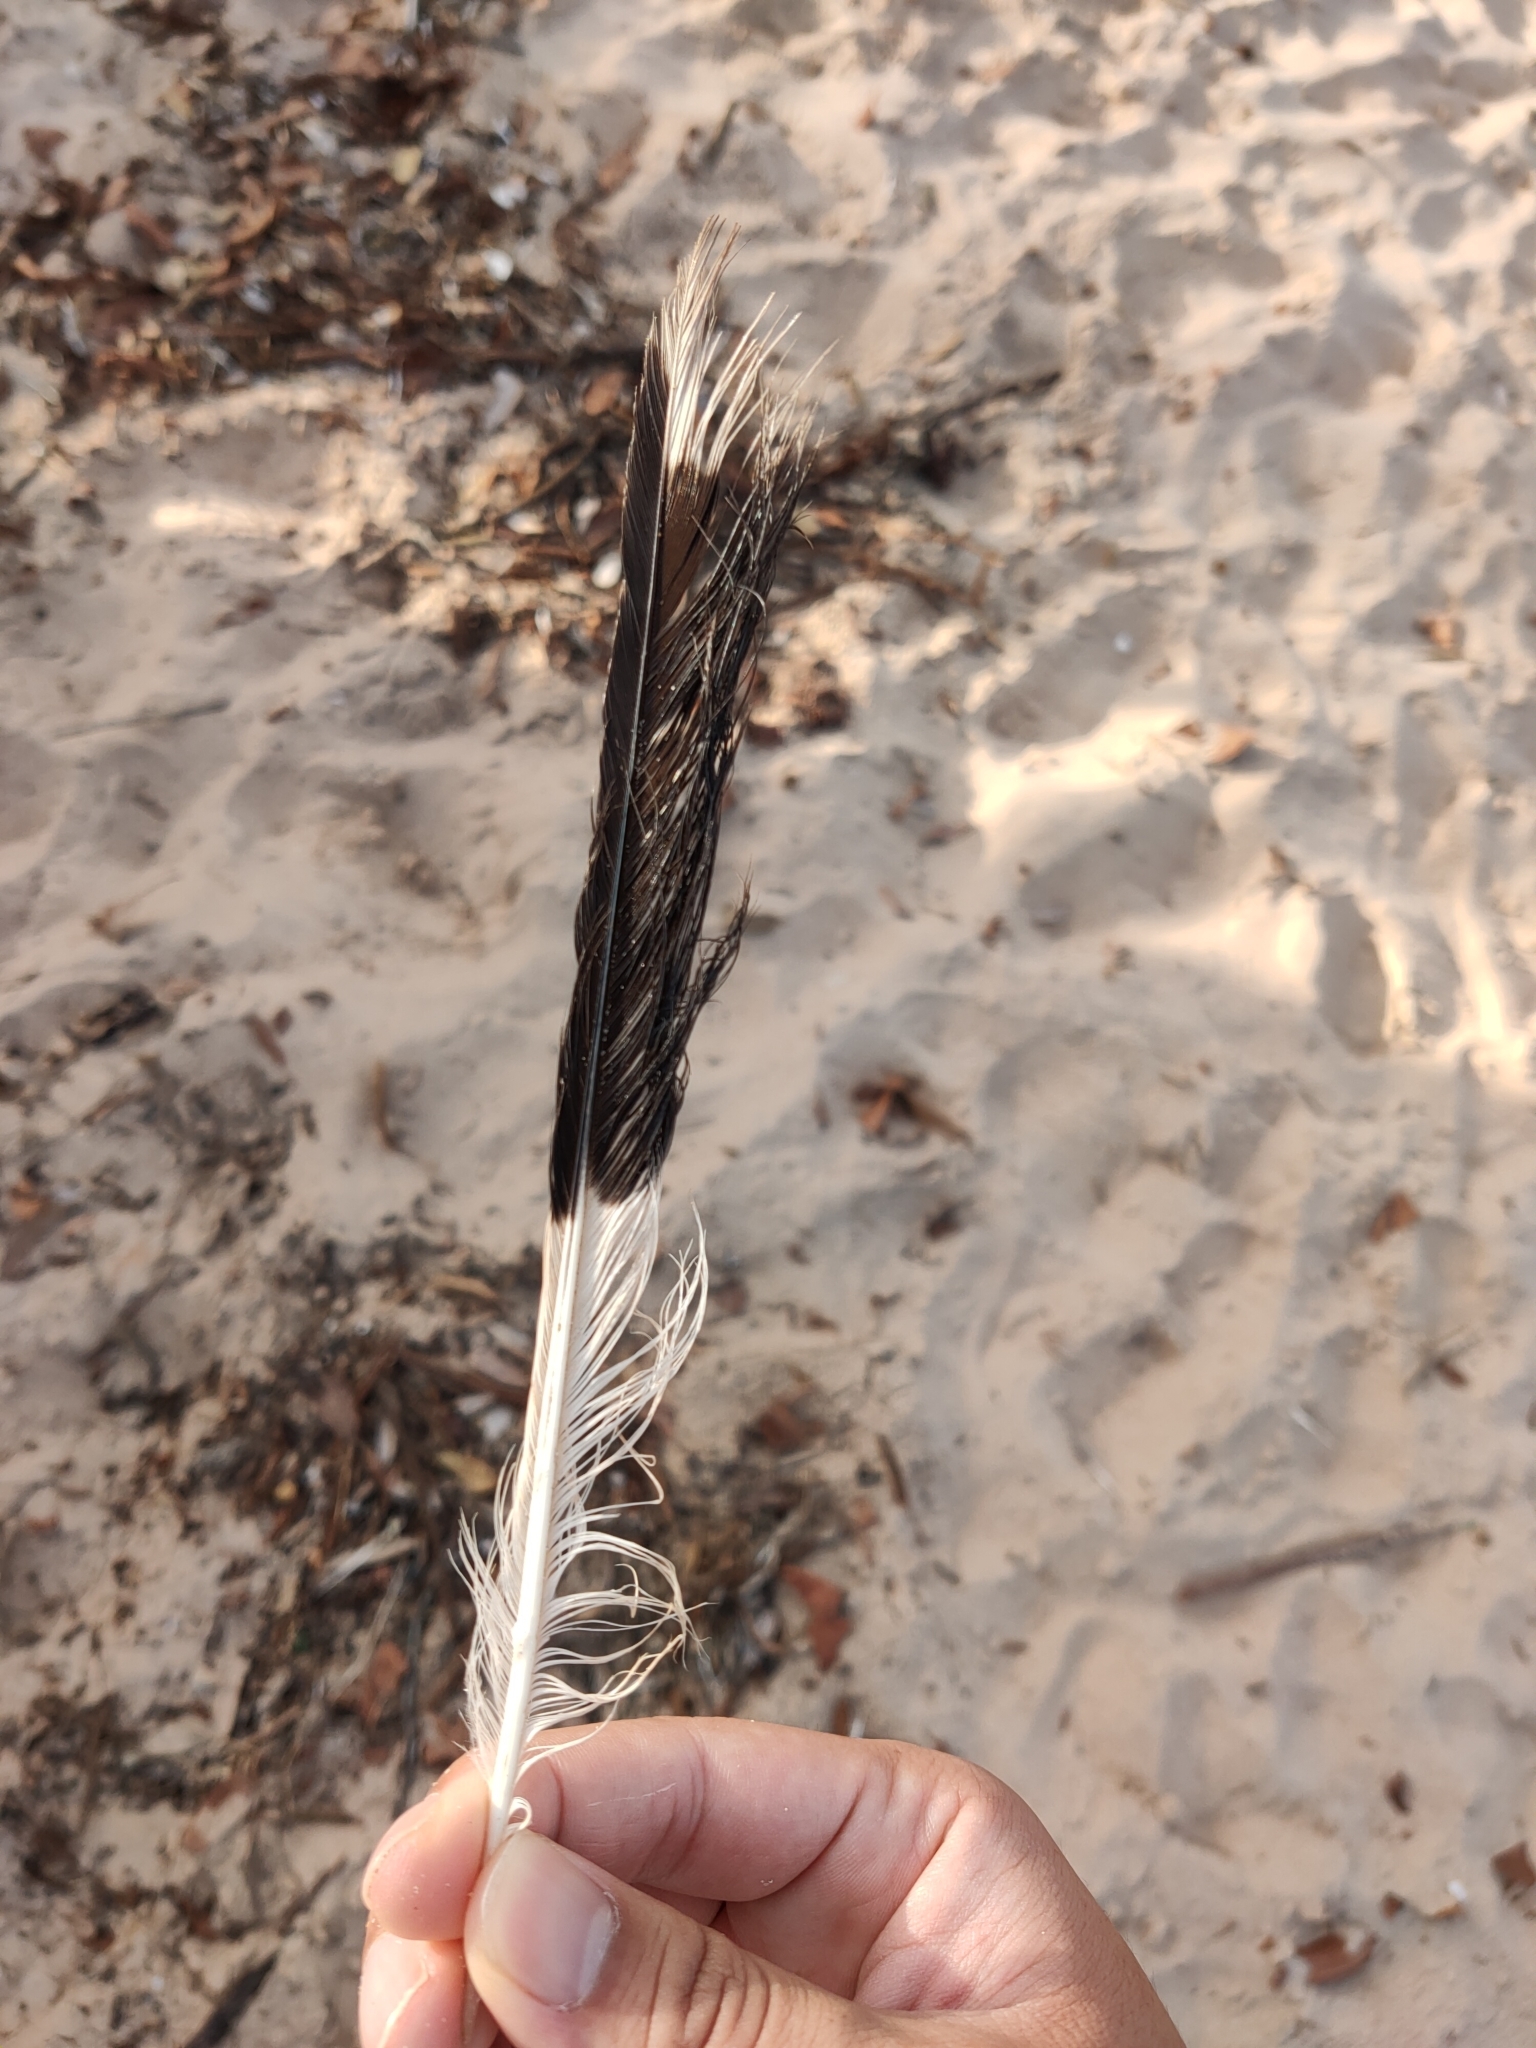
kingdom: Animalia
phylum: Chordata
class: Aves
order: Passeriformes
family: Cracticidae
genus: Strepera
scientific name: Strepera graculina
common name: Pied currawong
